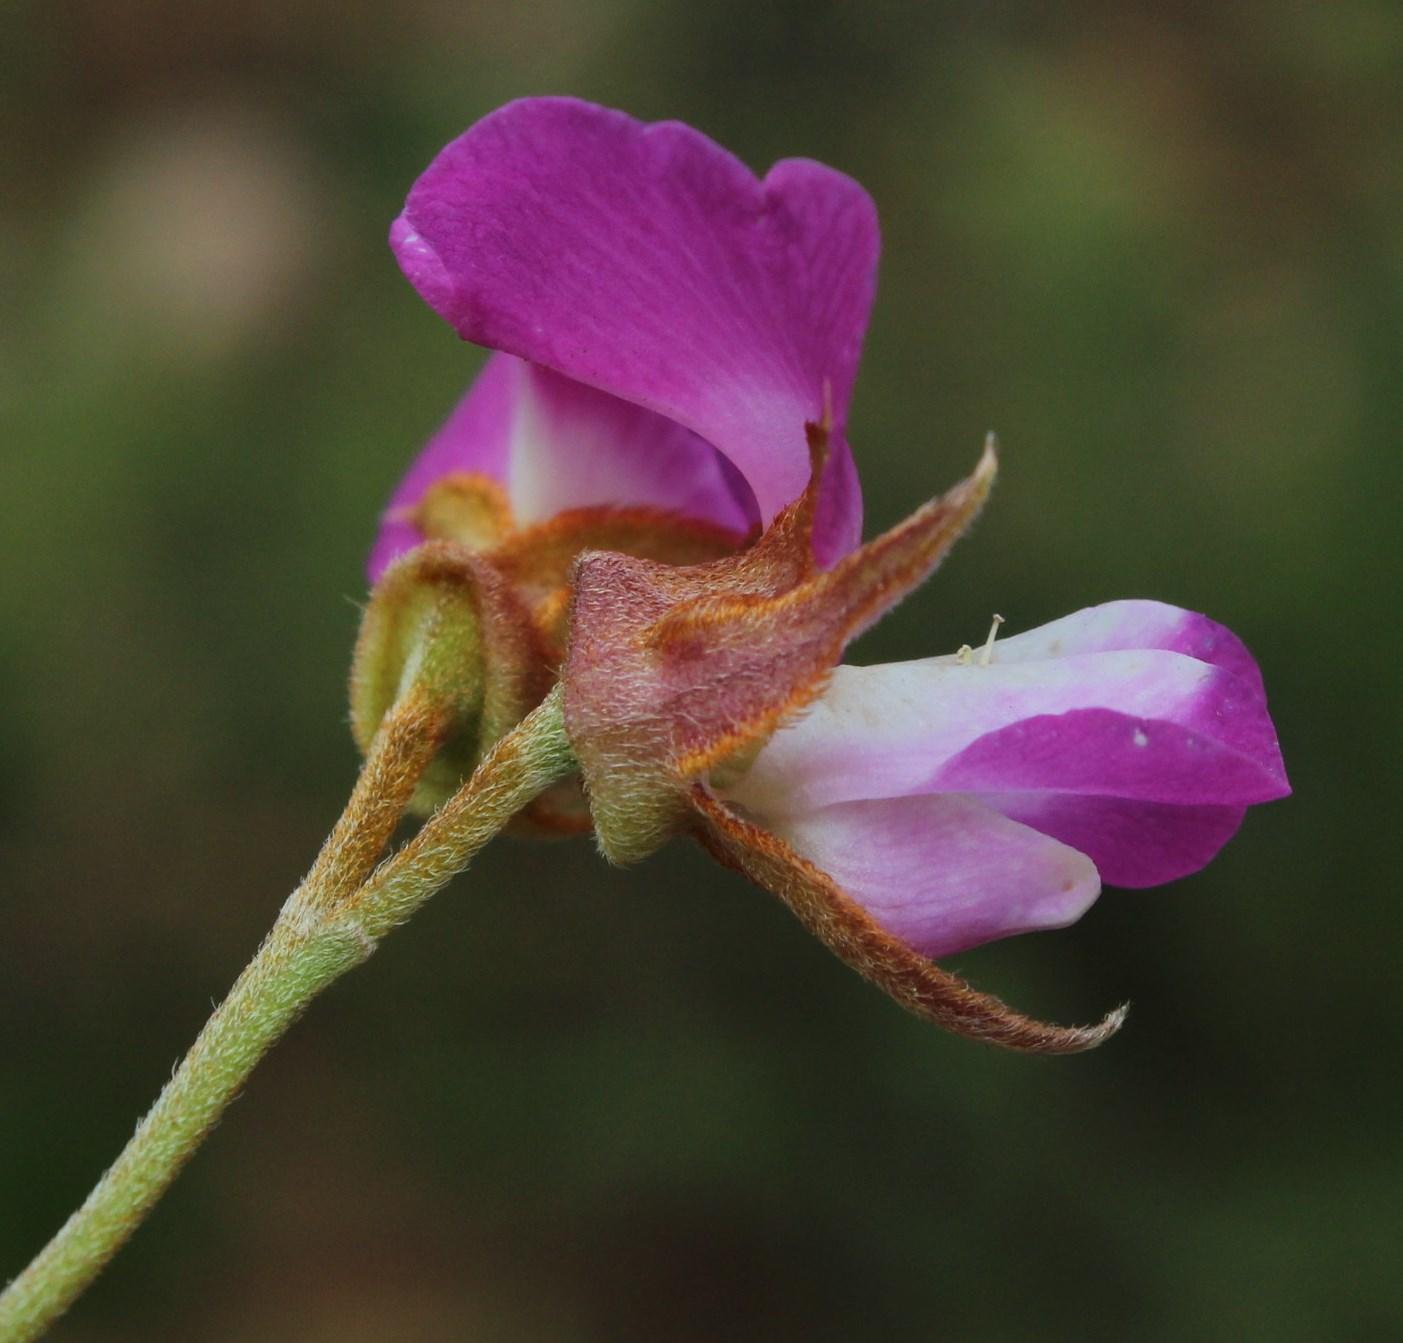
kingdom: Plantae
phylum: Tracheophyta
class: Magnoliopsida
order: Fabales
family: Fabaceae
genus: Podalyria
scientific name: Podalyria biflora
